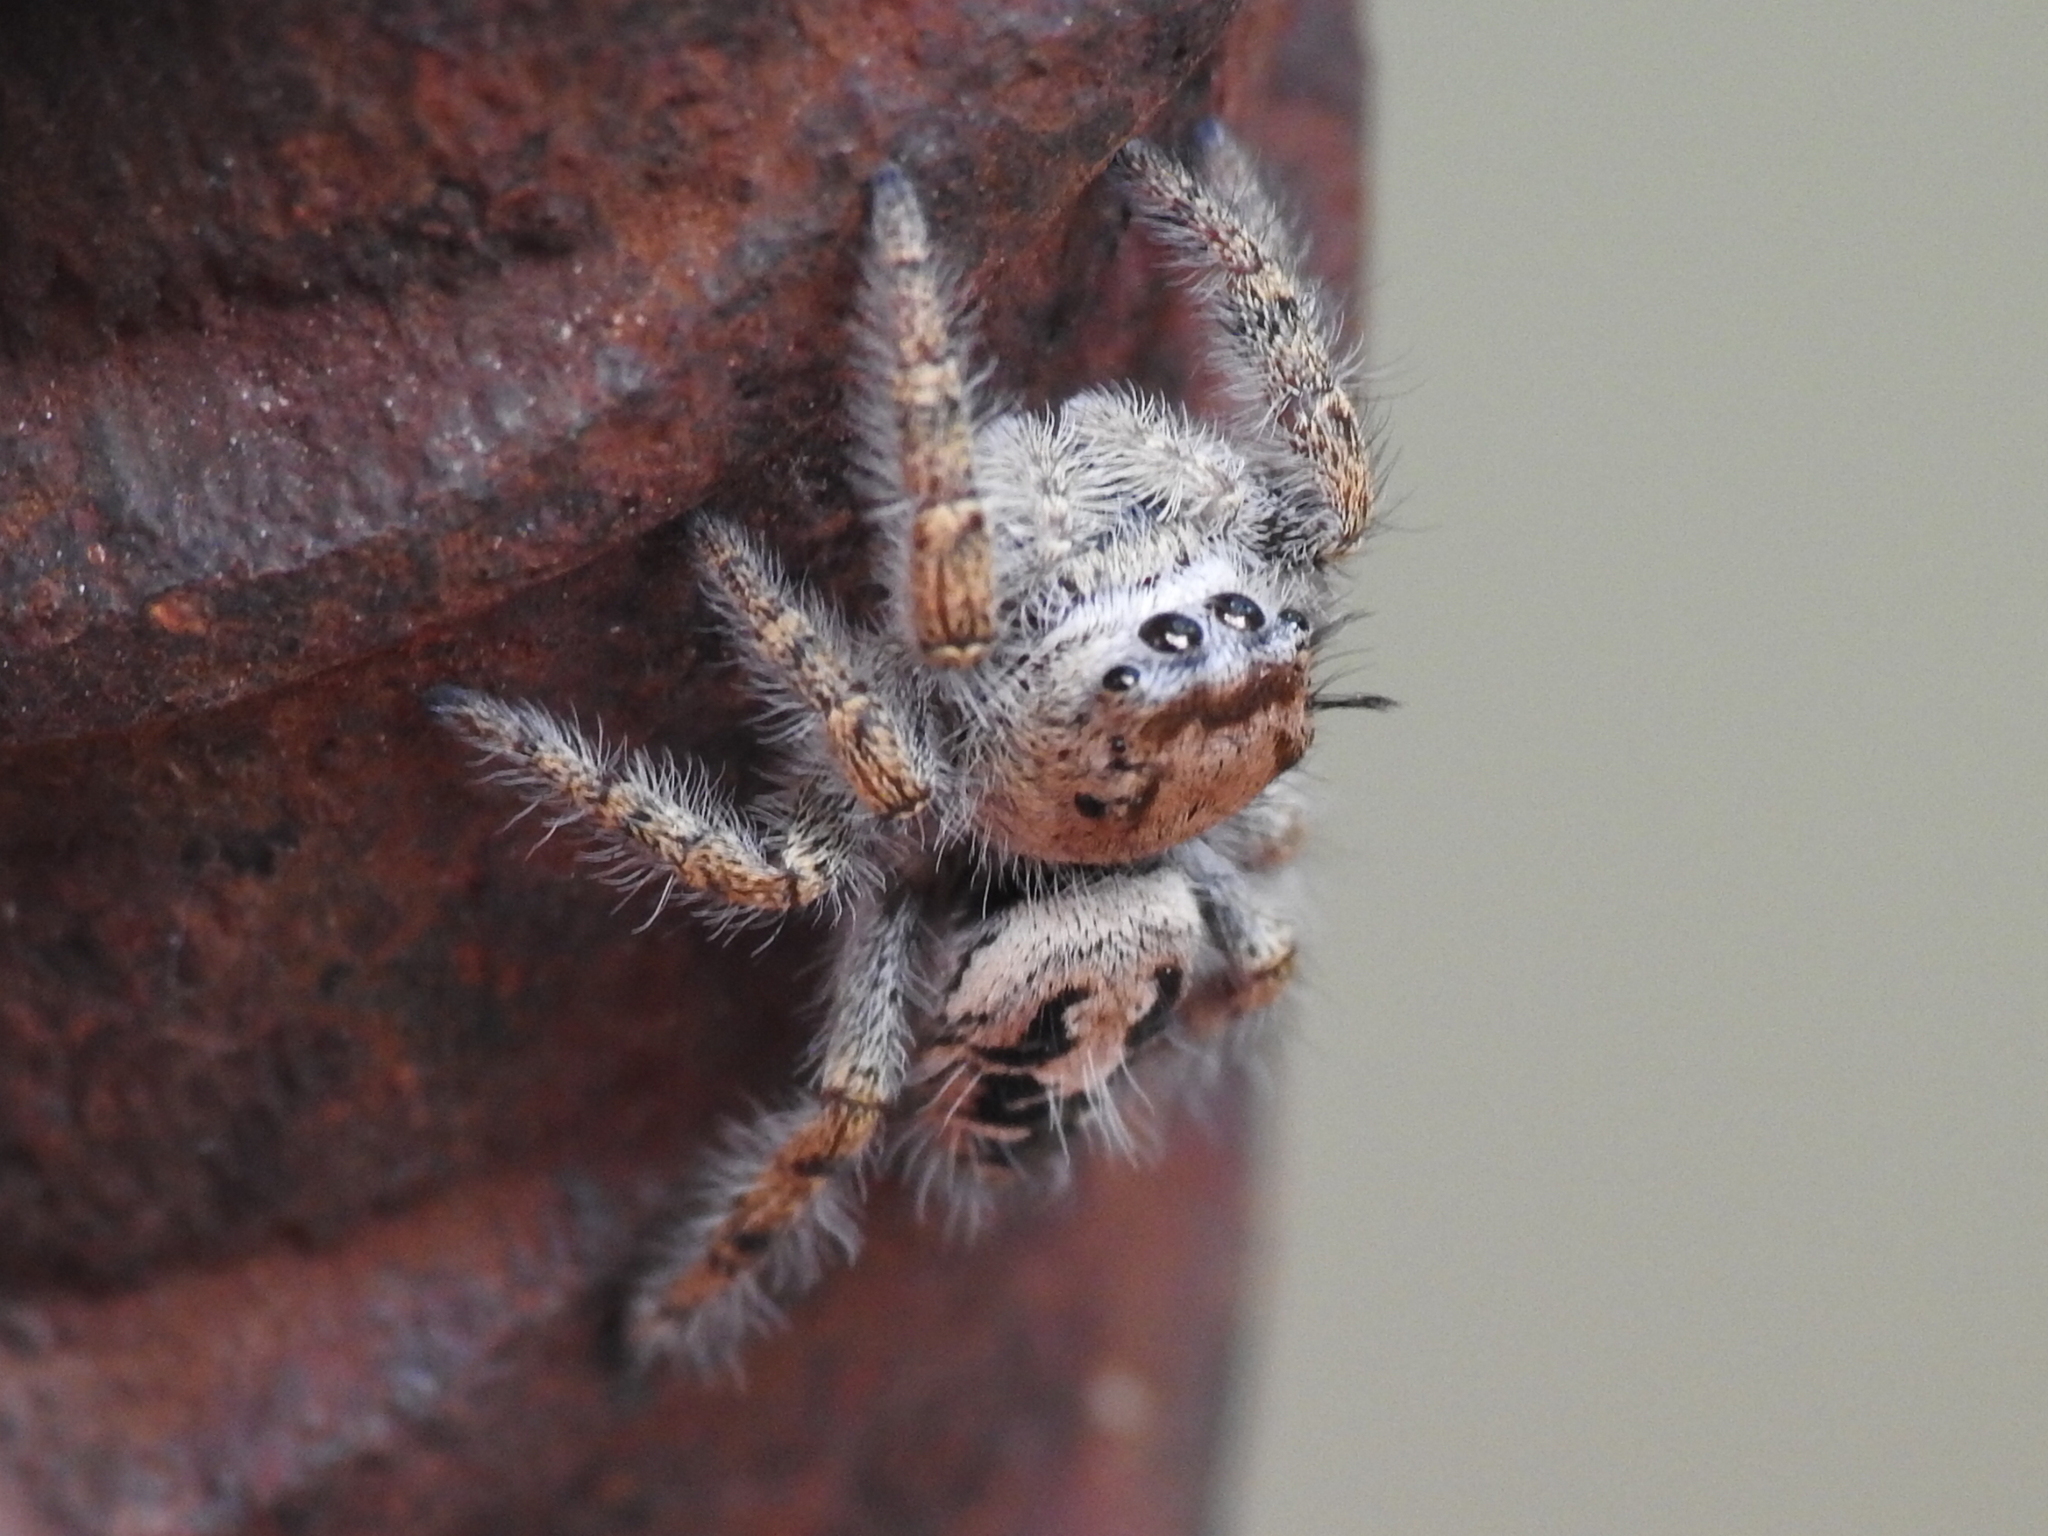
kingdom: Animalia
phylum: Arthropoda
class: Arachnida
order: Araneae
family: Salticidae
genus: Phidippus
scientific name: Phidippus carolinensis
